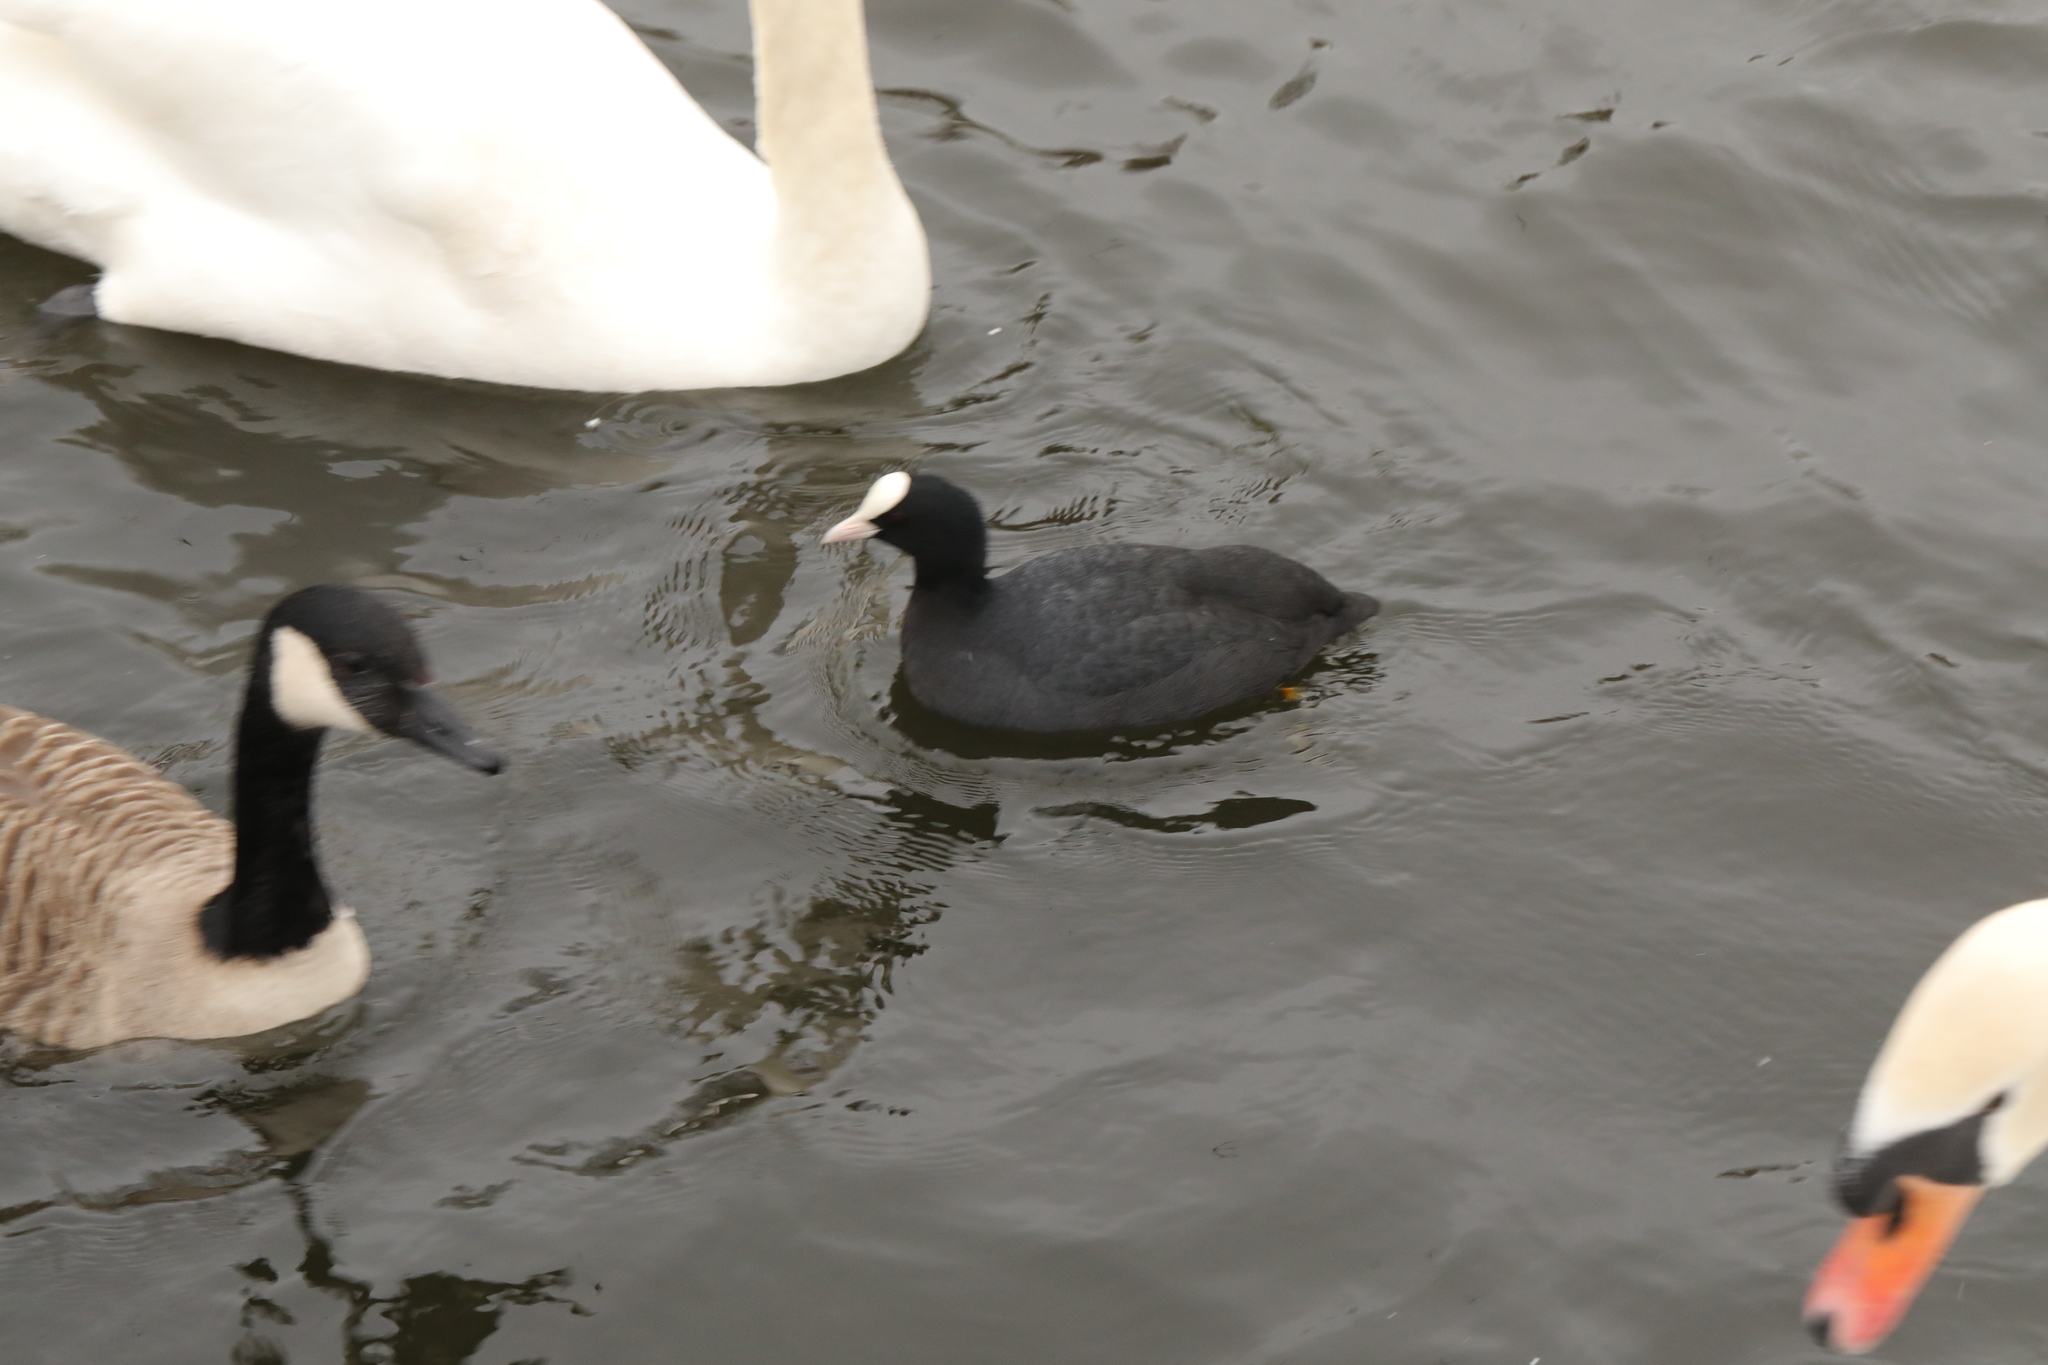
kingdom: Animalia
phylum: Chordata
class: Aves
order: Gruiformes
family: Rallidae
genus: Fulica
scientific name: Fulica atra
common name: Eurasian coot
